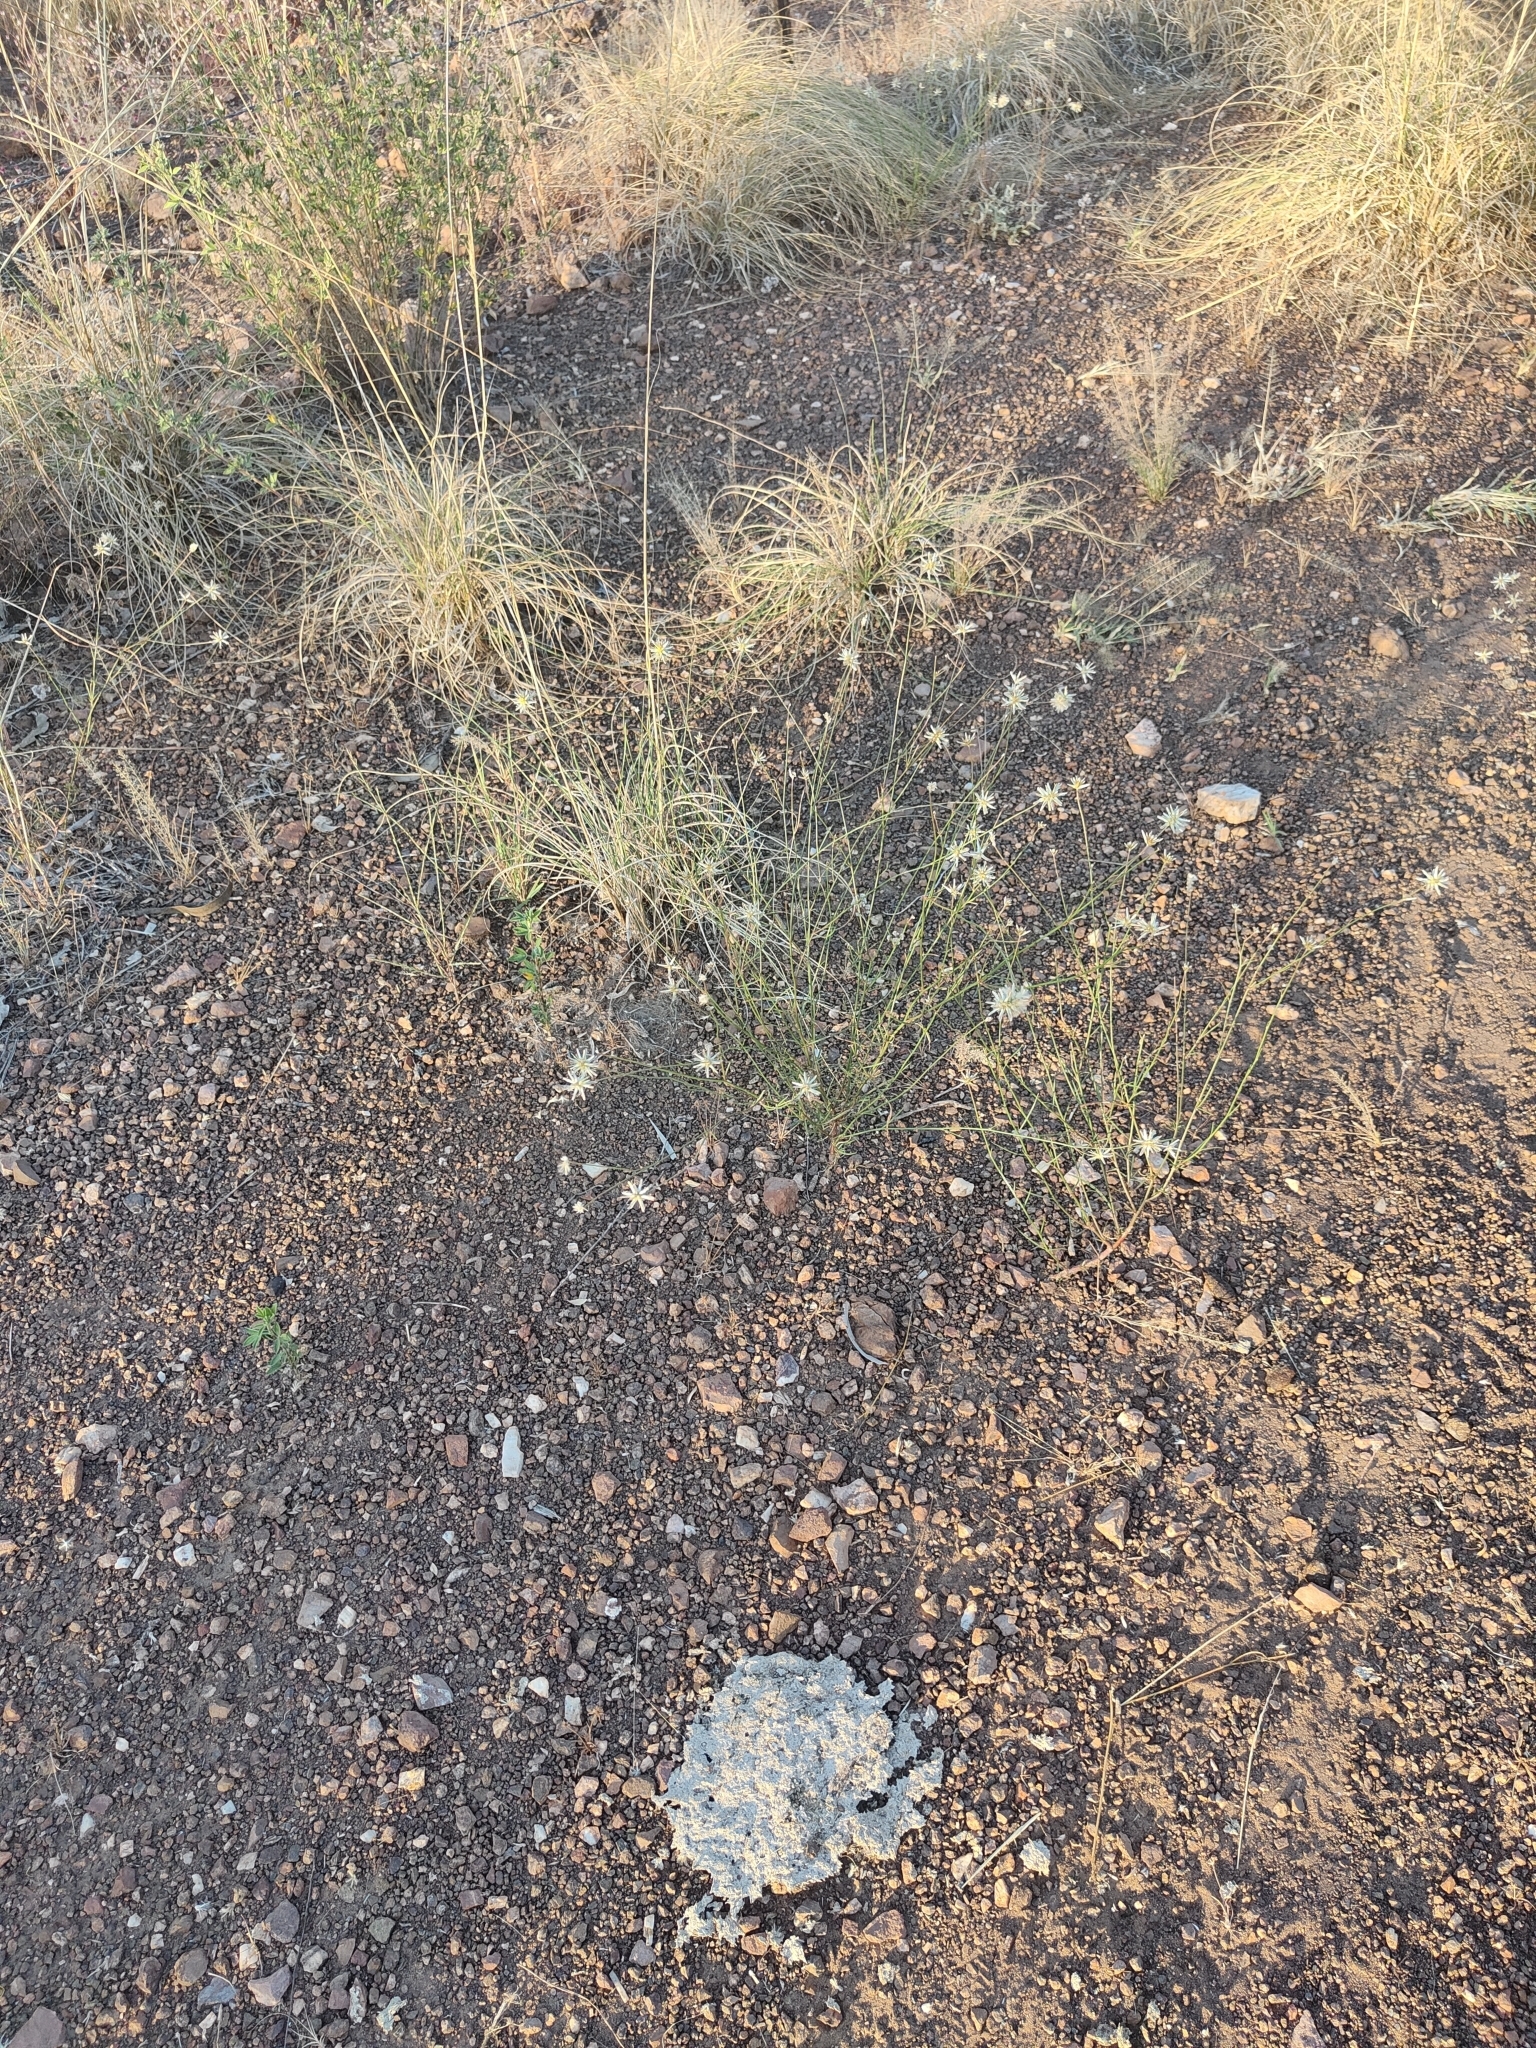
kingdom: Plantae
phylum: Tracheophyta
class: Magnoliopsida
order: Caryophyllales
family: Amaranthaceae
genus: Ptilotus
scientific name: Ptilotus fusiformis
